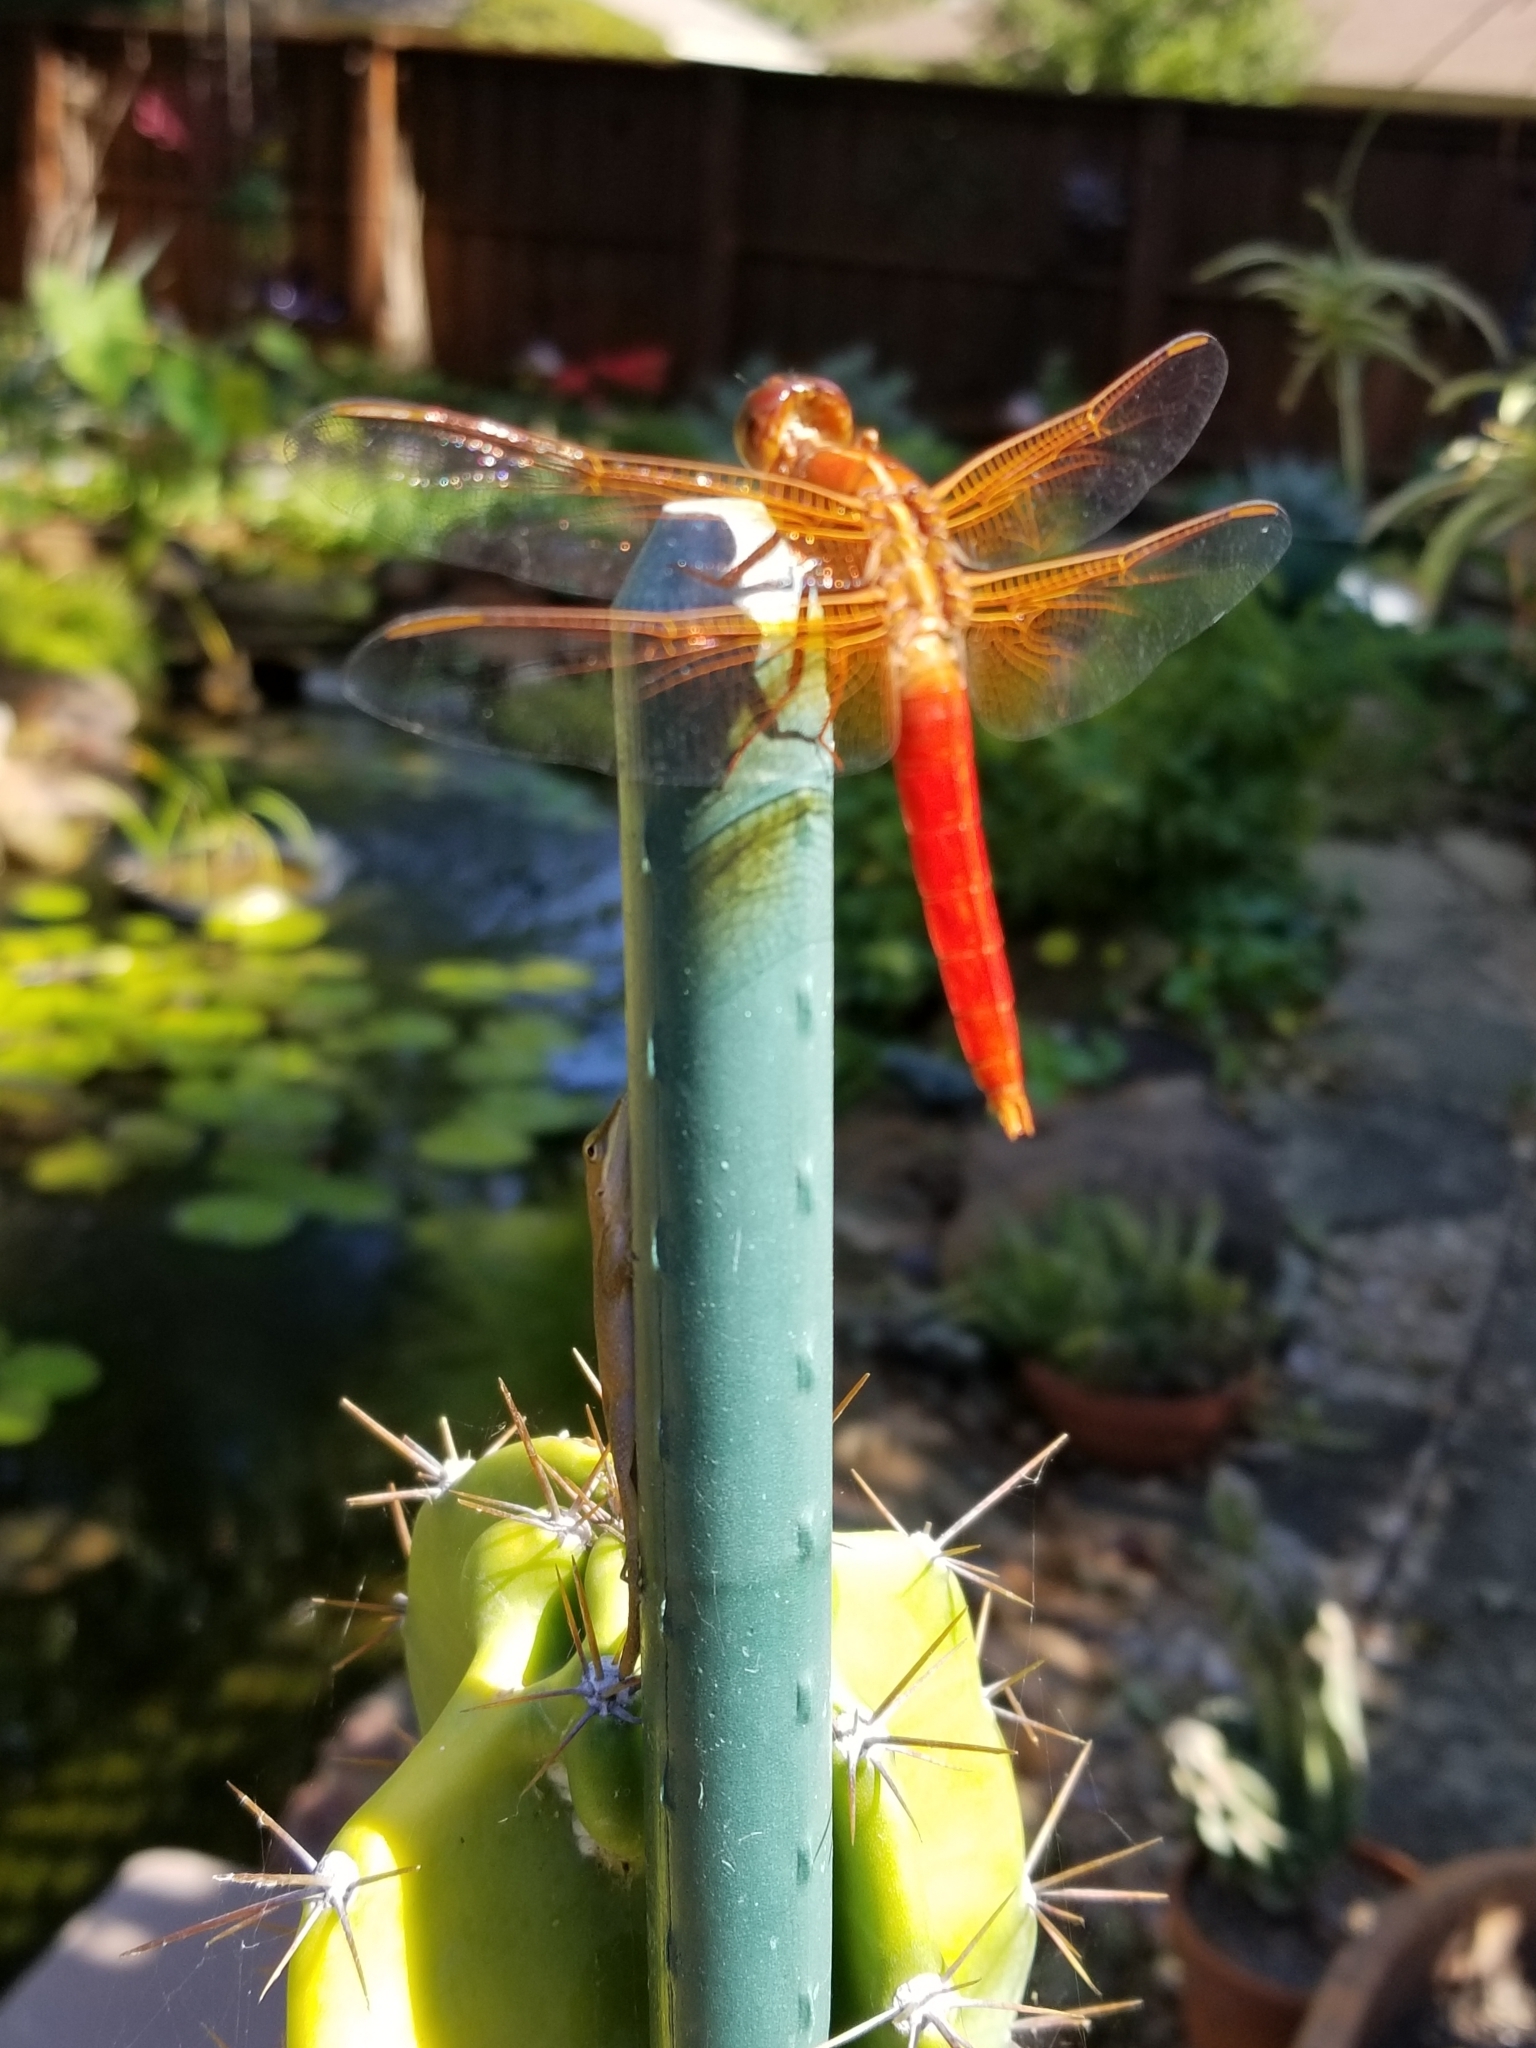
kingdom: Animalia
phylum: Arthropoda
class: Insecta
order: Odonata
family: Libellulidae
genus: Libellula
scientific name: Libellula croceipennis
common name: Neon skimmer
